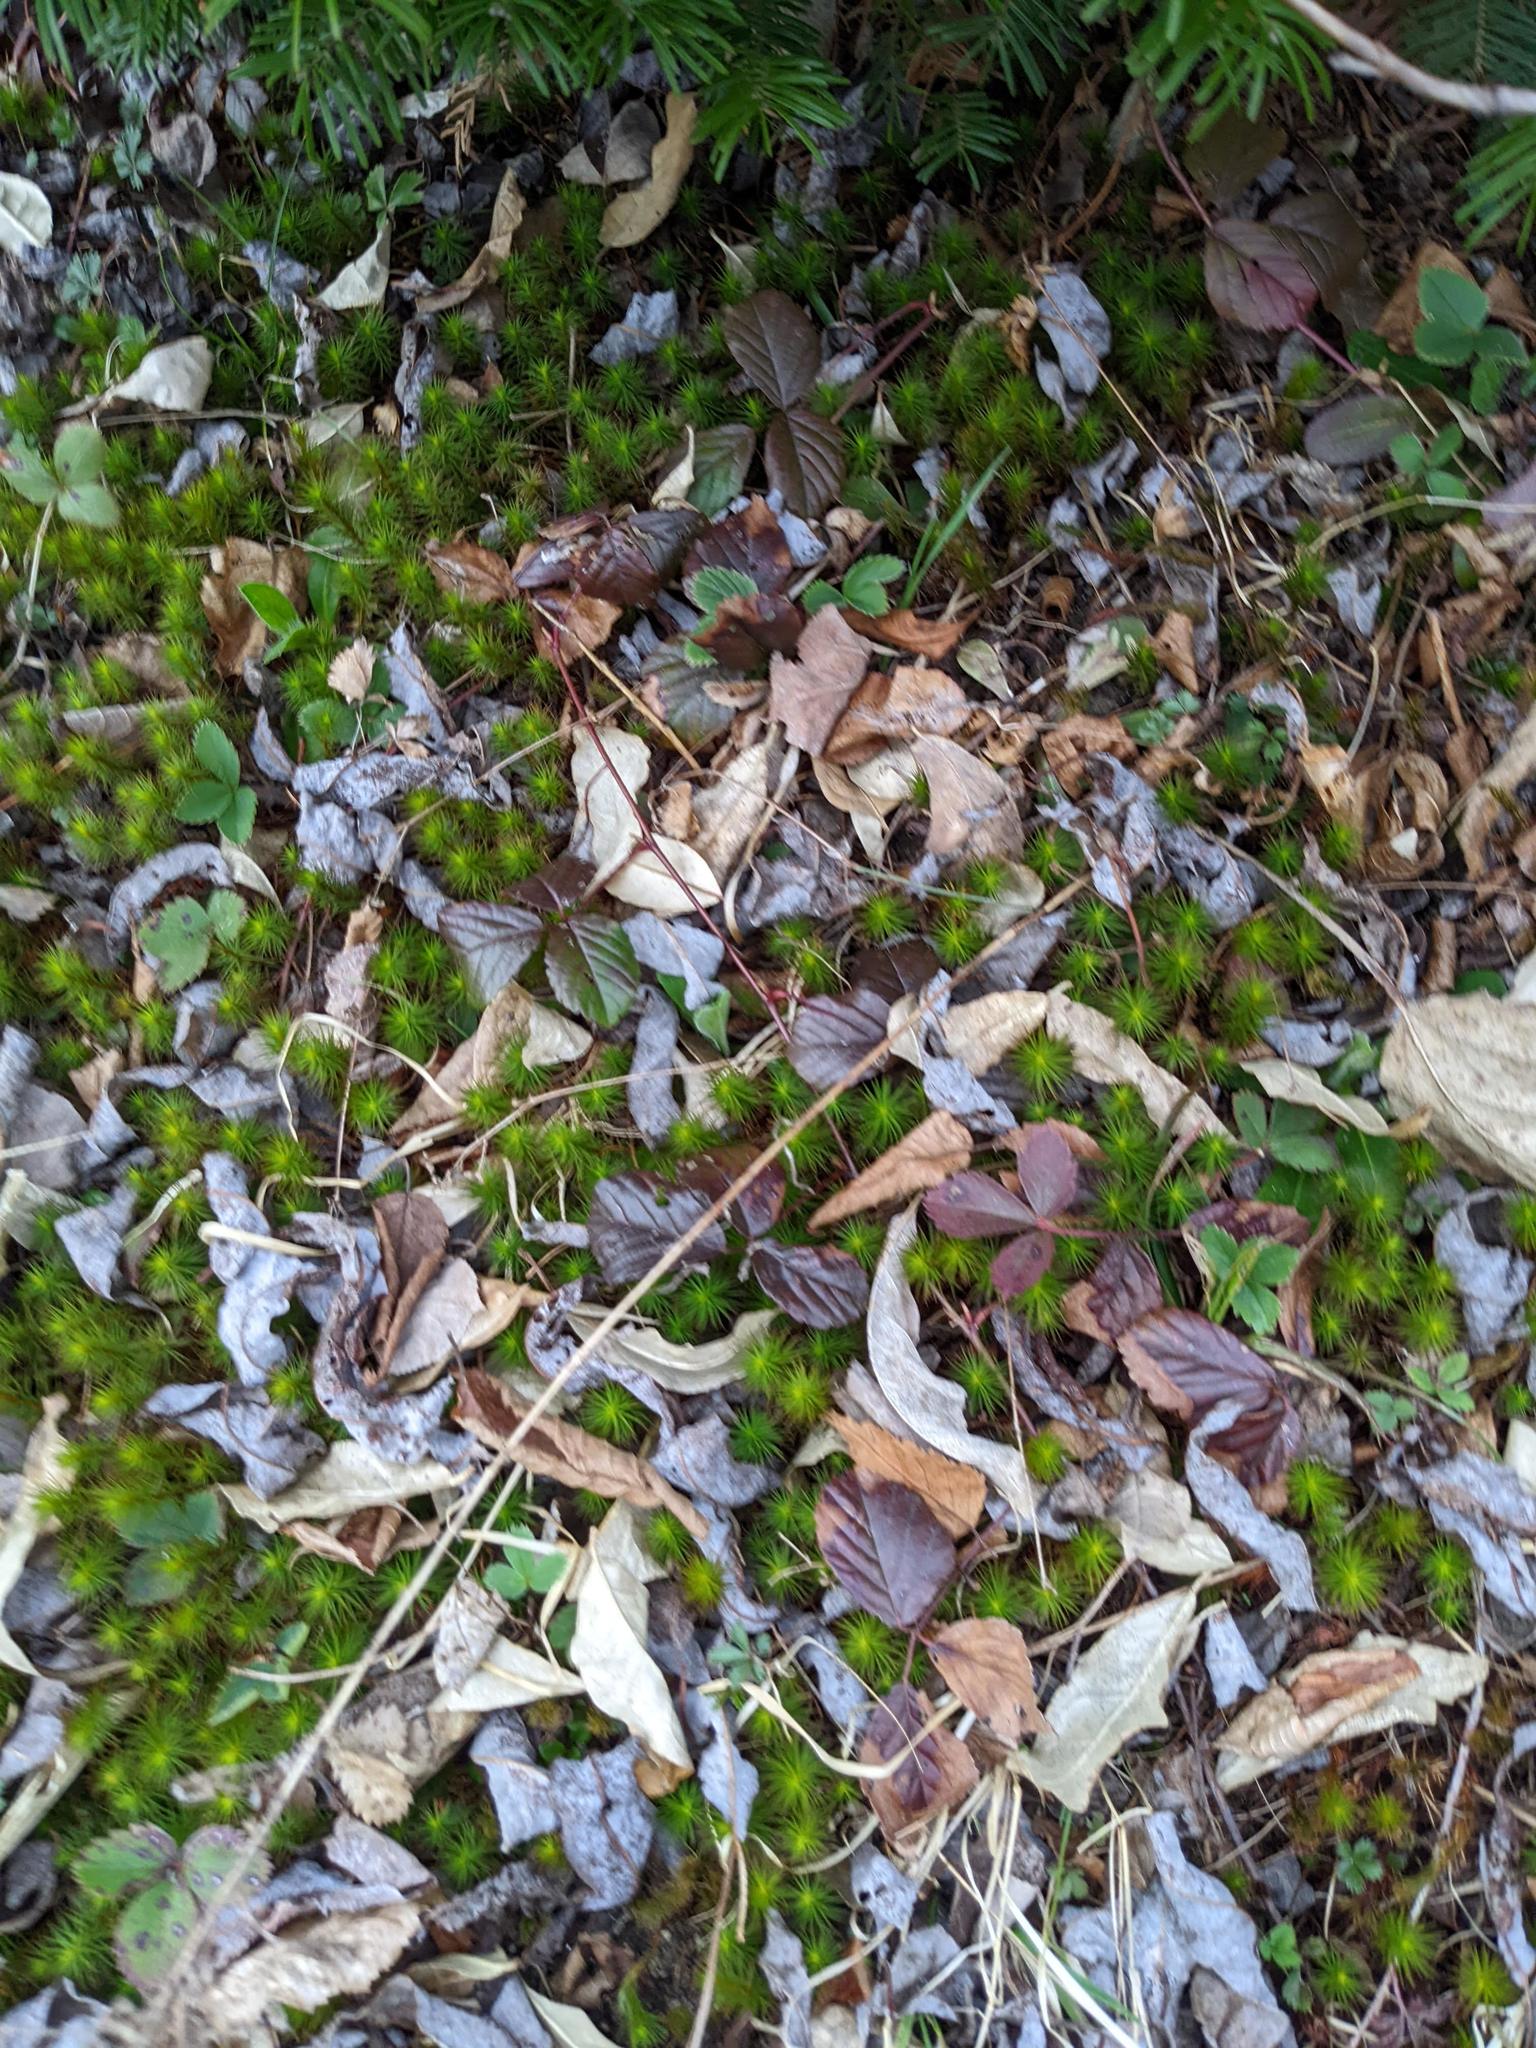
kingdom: Plantae
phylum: Tracheophyta
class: Magnoliopsida
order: Rosales
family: Rosaceae
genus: Rubus
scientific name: Rubus hispidus
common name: Running blackberry
